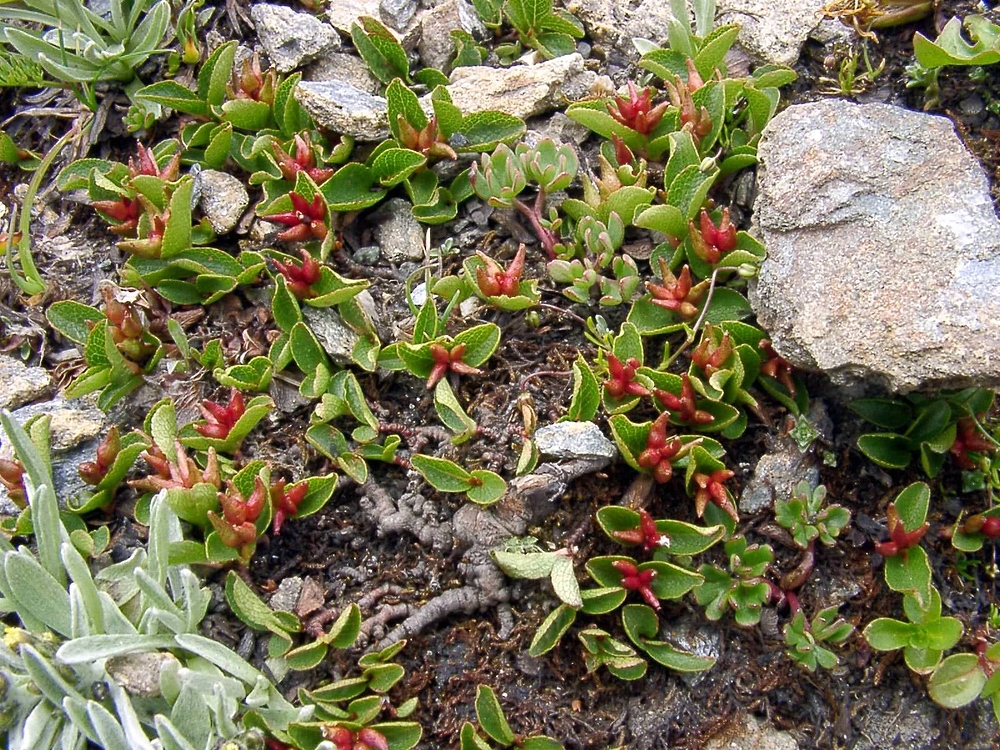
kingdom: Plantae
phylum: Tracheophyta
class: Magnoliopsida
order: Malpighiales
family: Salicaceae
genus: Salix
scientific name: Salix herbacea
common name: Dwarf willow
